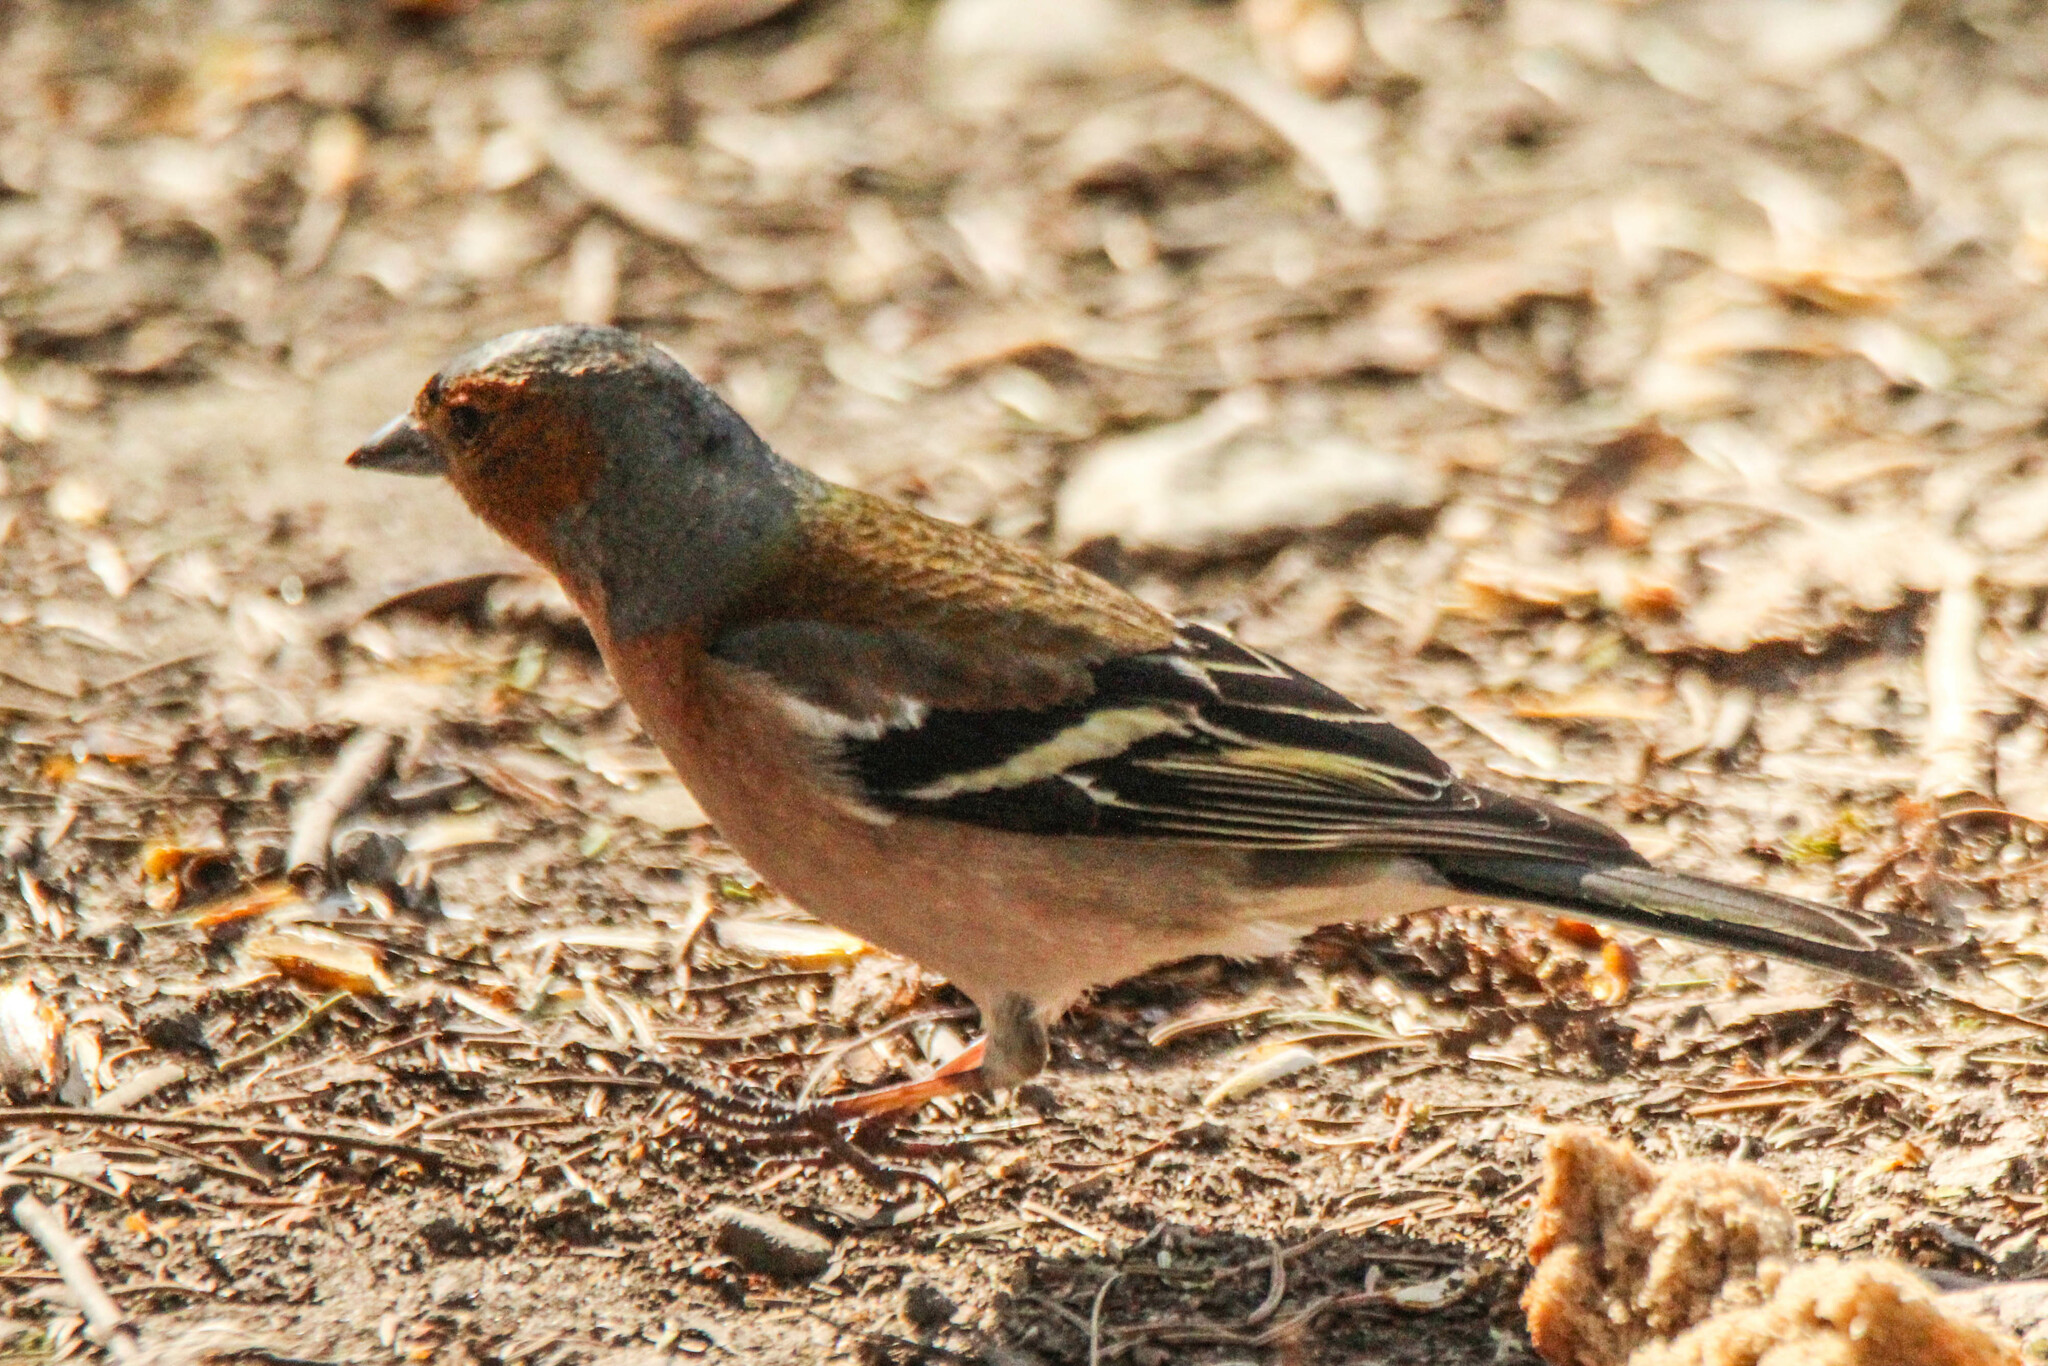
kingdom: Animalia
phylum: Chordata
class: Aves
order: Passeriformes
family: Fringillidae
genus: Fringilla
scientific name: Fringilla coelebs
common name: Common chaffinch
